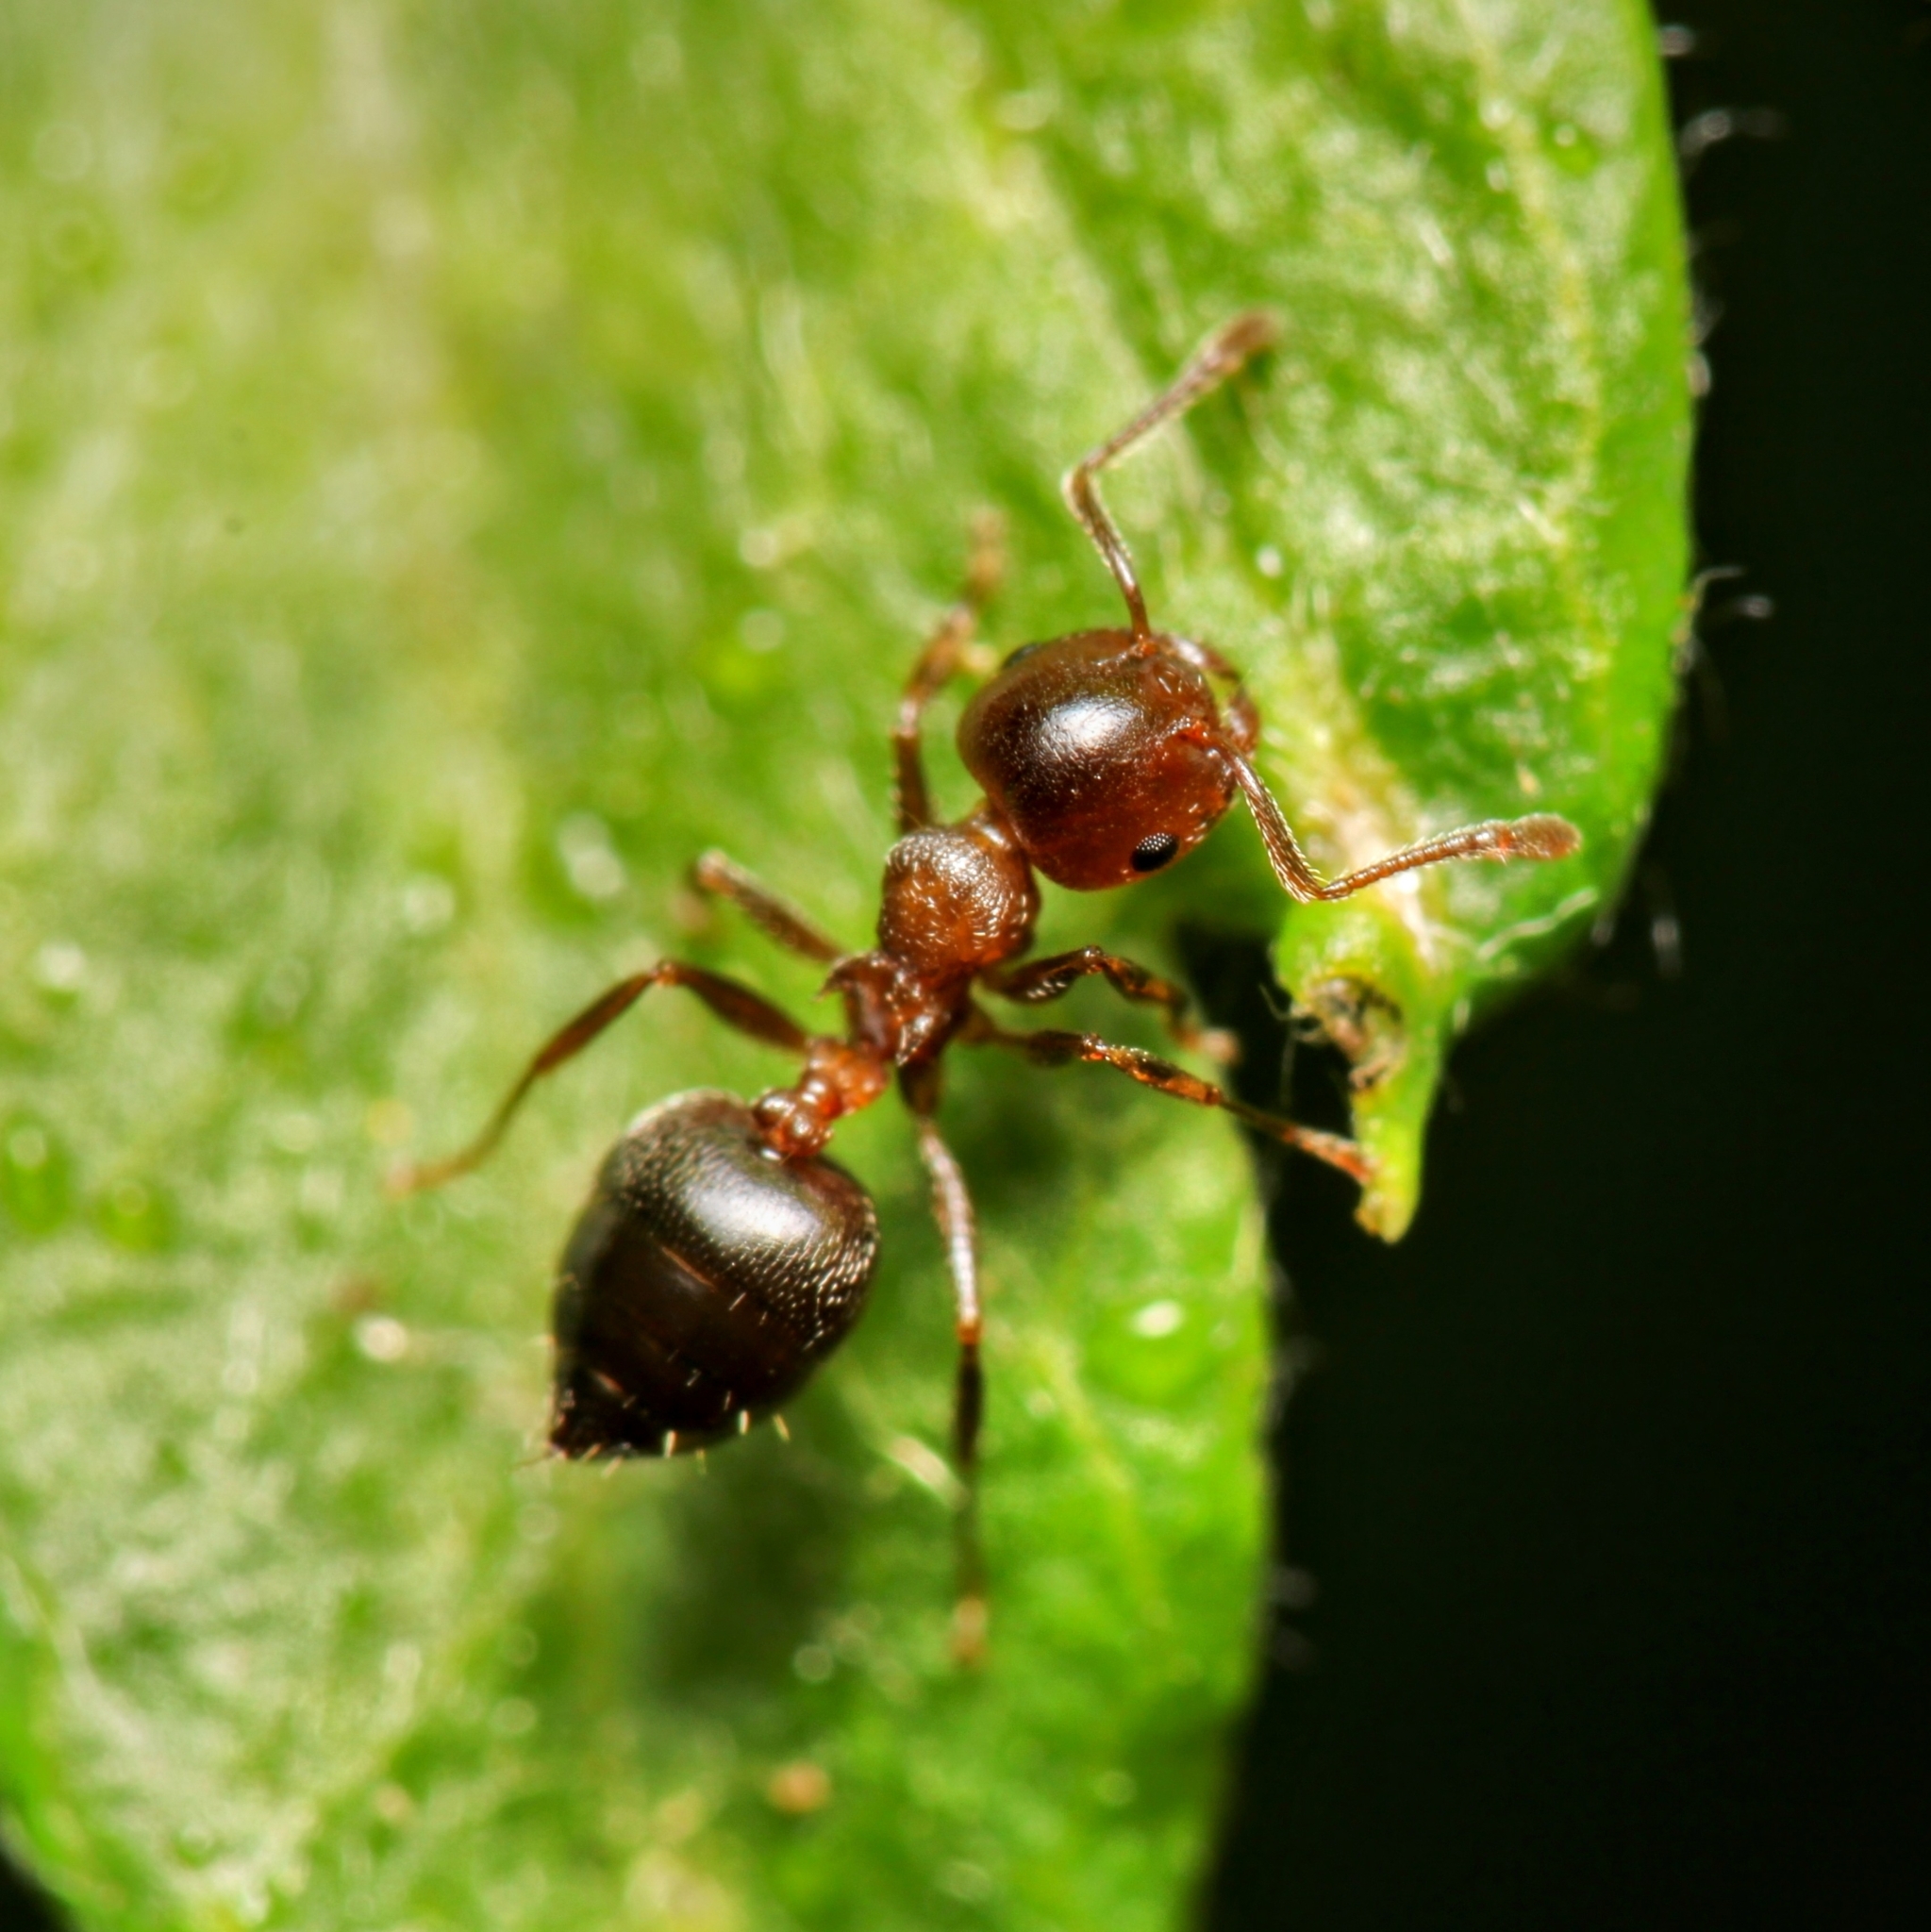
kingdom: Animalia
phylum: Arthropoda
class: Insecta
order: Hymenoptera
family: Formicidae
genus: Crematogaster
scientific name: Crematogaster ashmeadi
